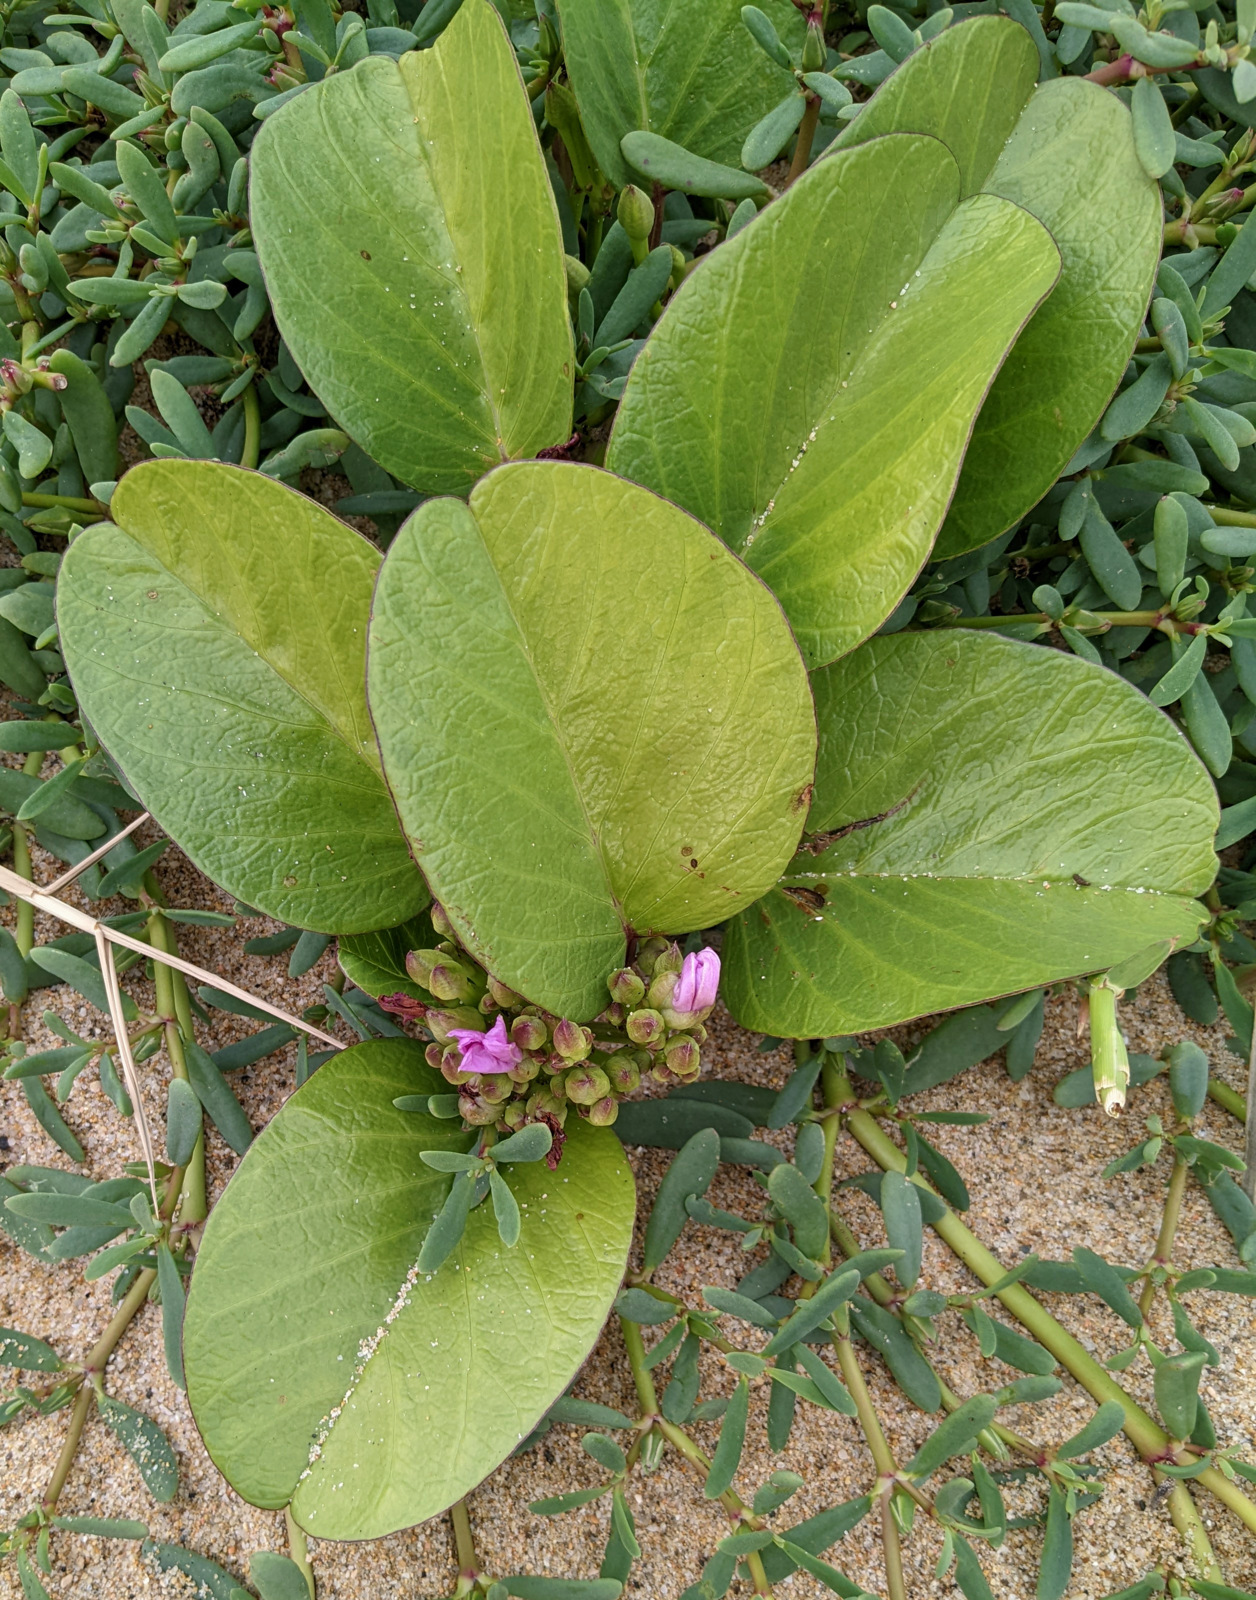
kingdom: Plantae
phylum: Tracheophyta
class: Magnoliopsida
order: Solanales
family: Convolvulaceae
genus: Ipomoea
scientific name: Ipomoea pes-caprae
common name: Beach morning glory
